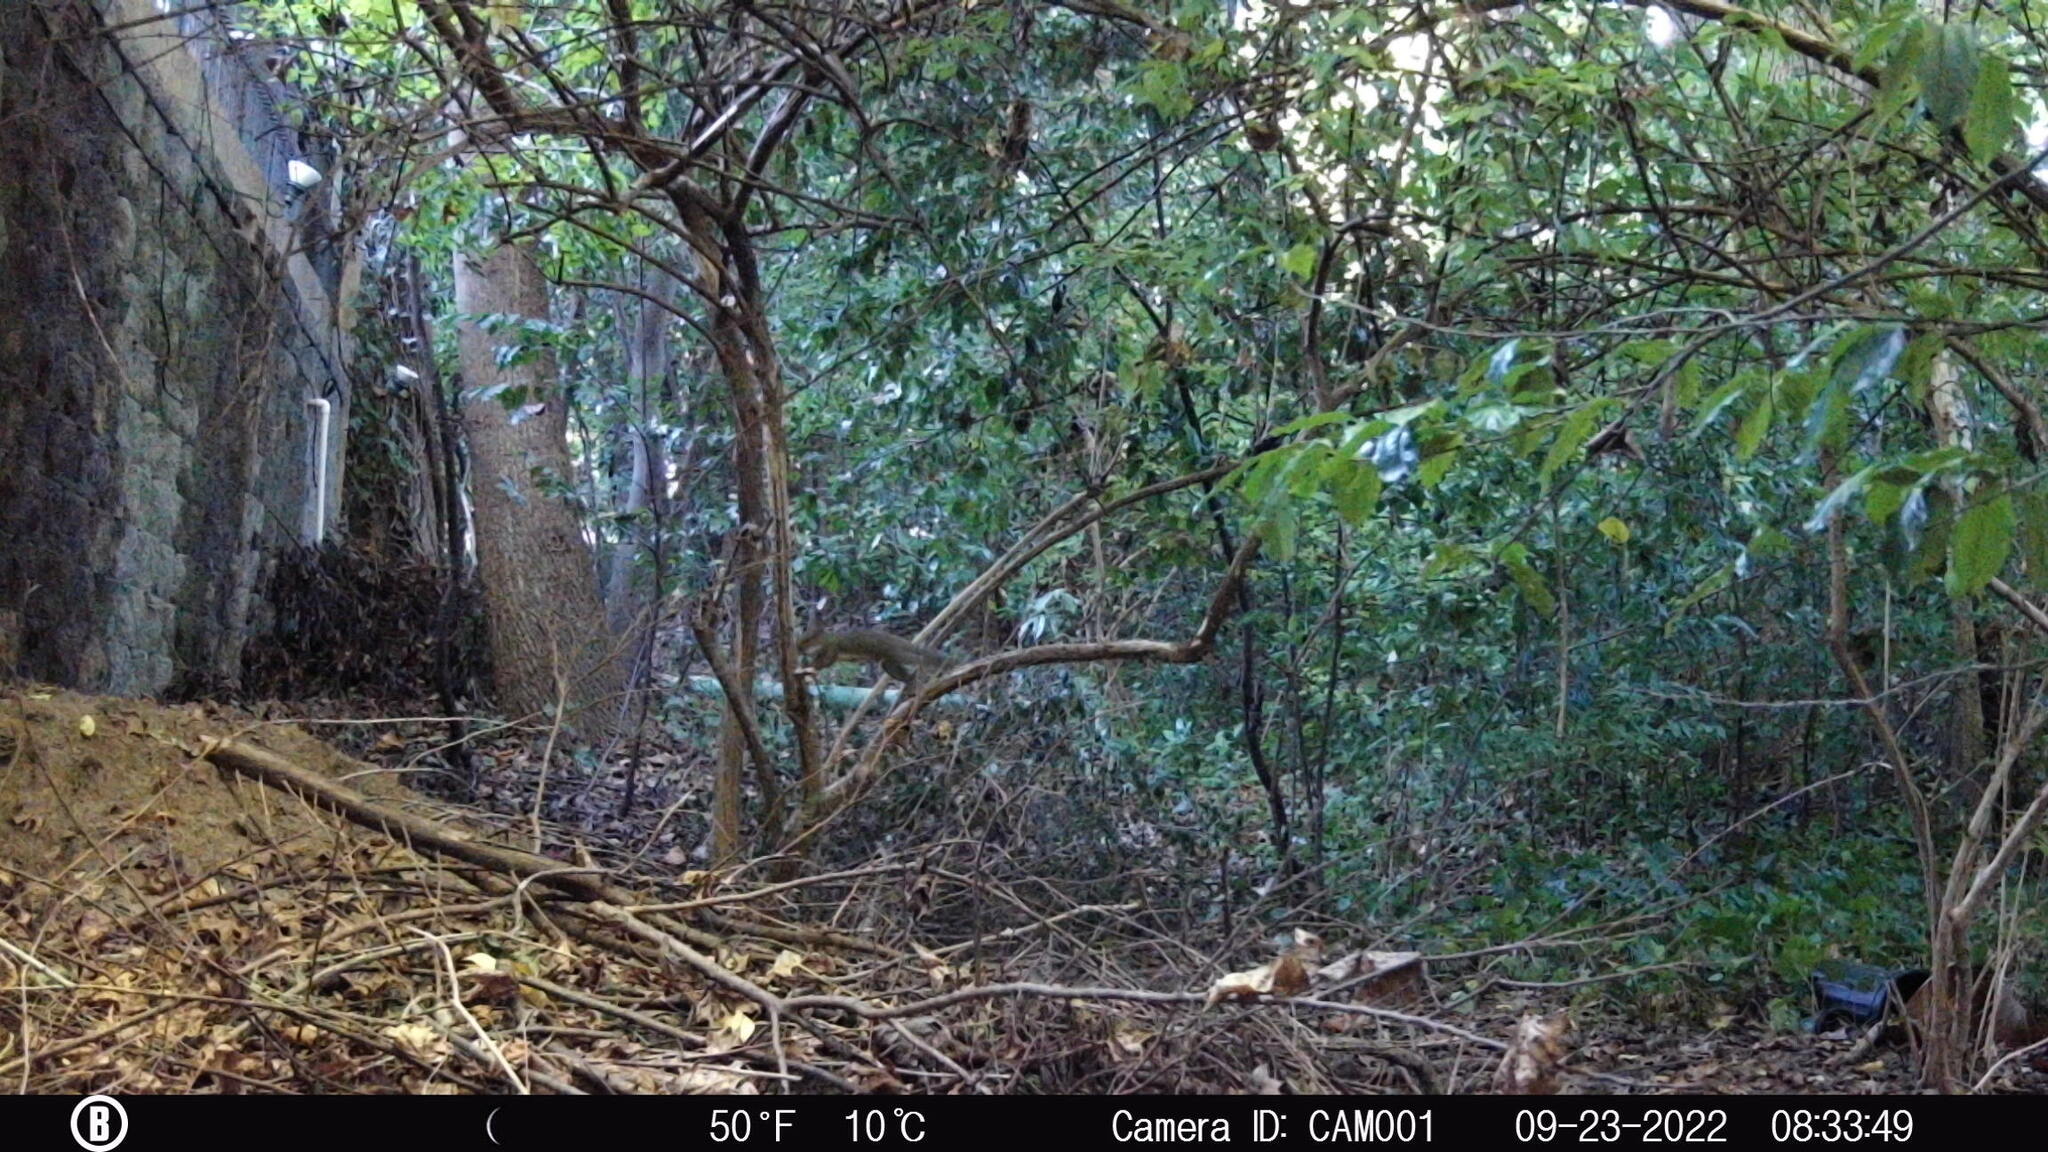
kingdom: Animalia
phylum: Chordata
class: Mammalia
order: Rodentia
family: Sciuridae
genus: Sciurus
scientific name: Sciurus carolinensis
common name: Eastern gray squirrel
